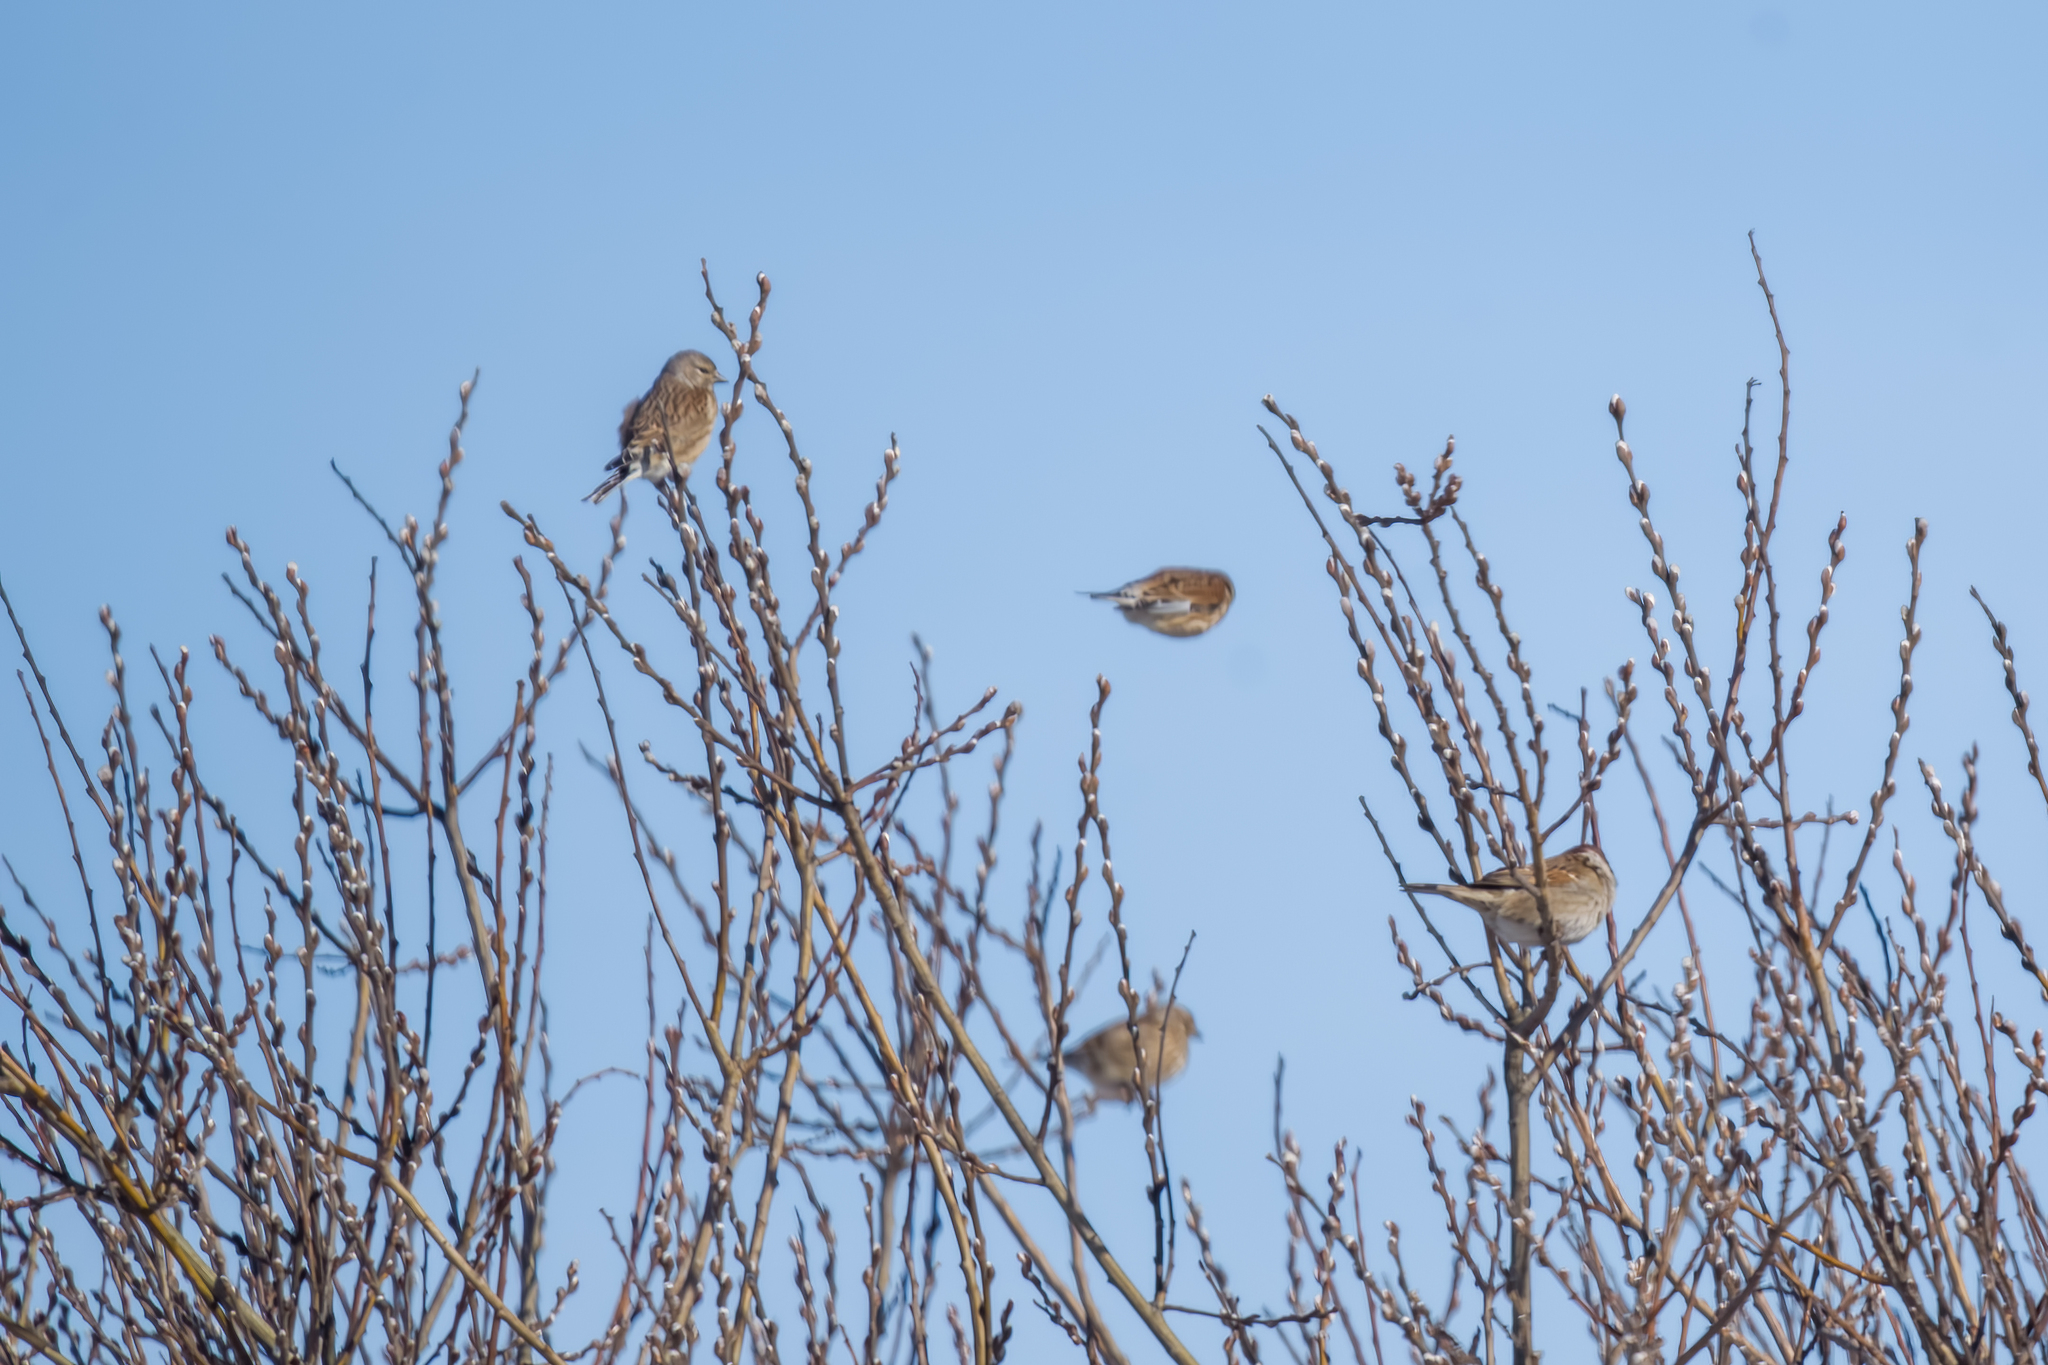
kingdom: Animalia
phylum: Chordata
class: Aves
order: Passeriformes
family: Fringillidae
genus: Linaria
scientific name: Linaria cannabina
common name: Common linnet
